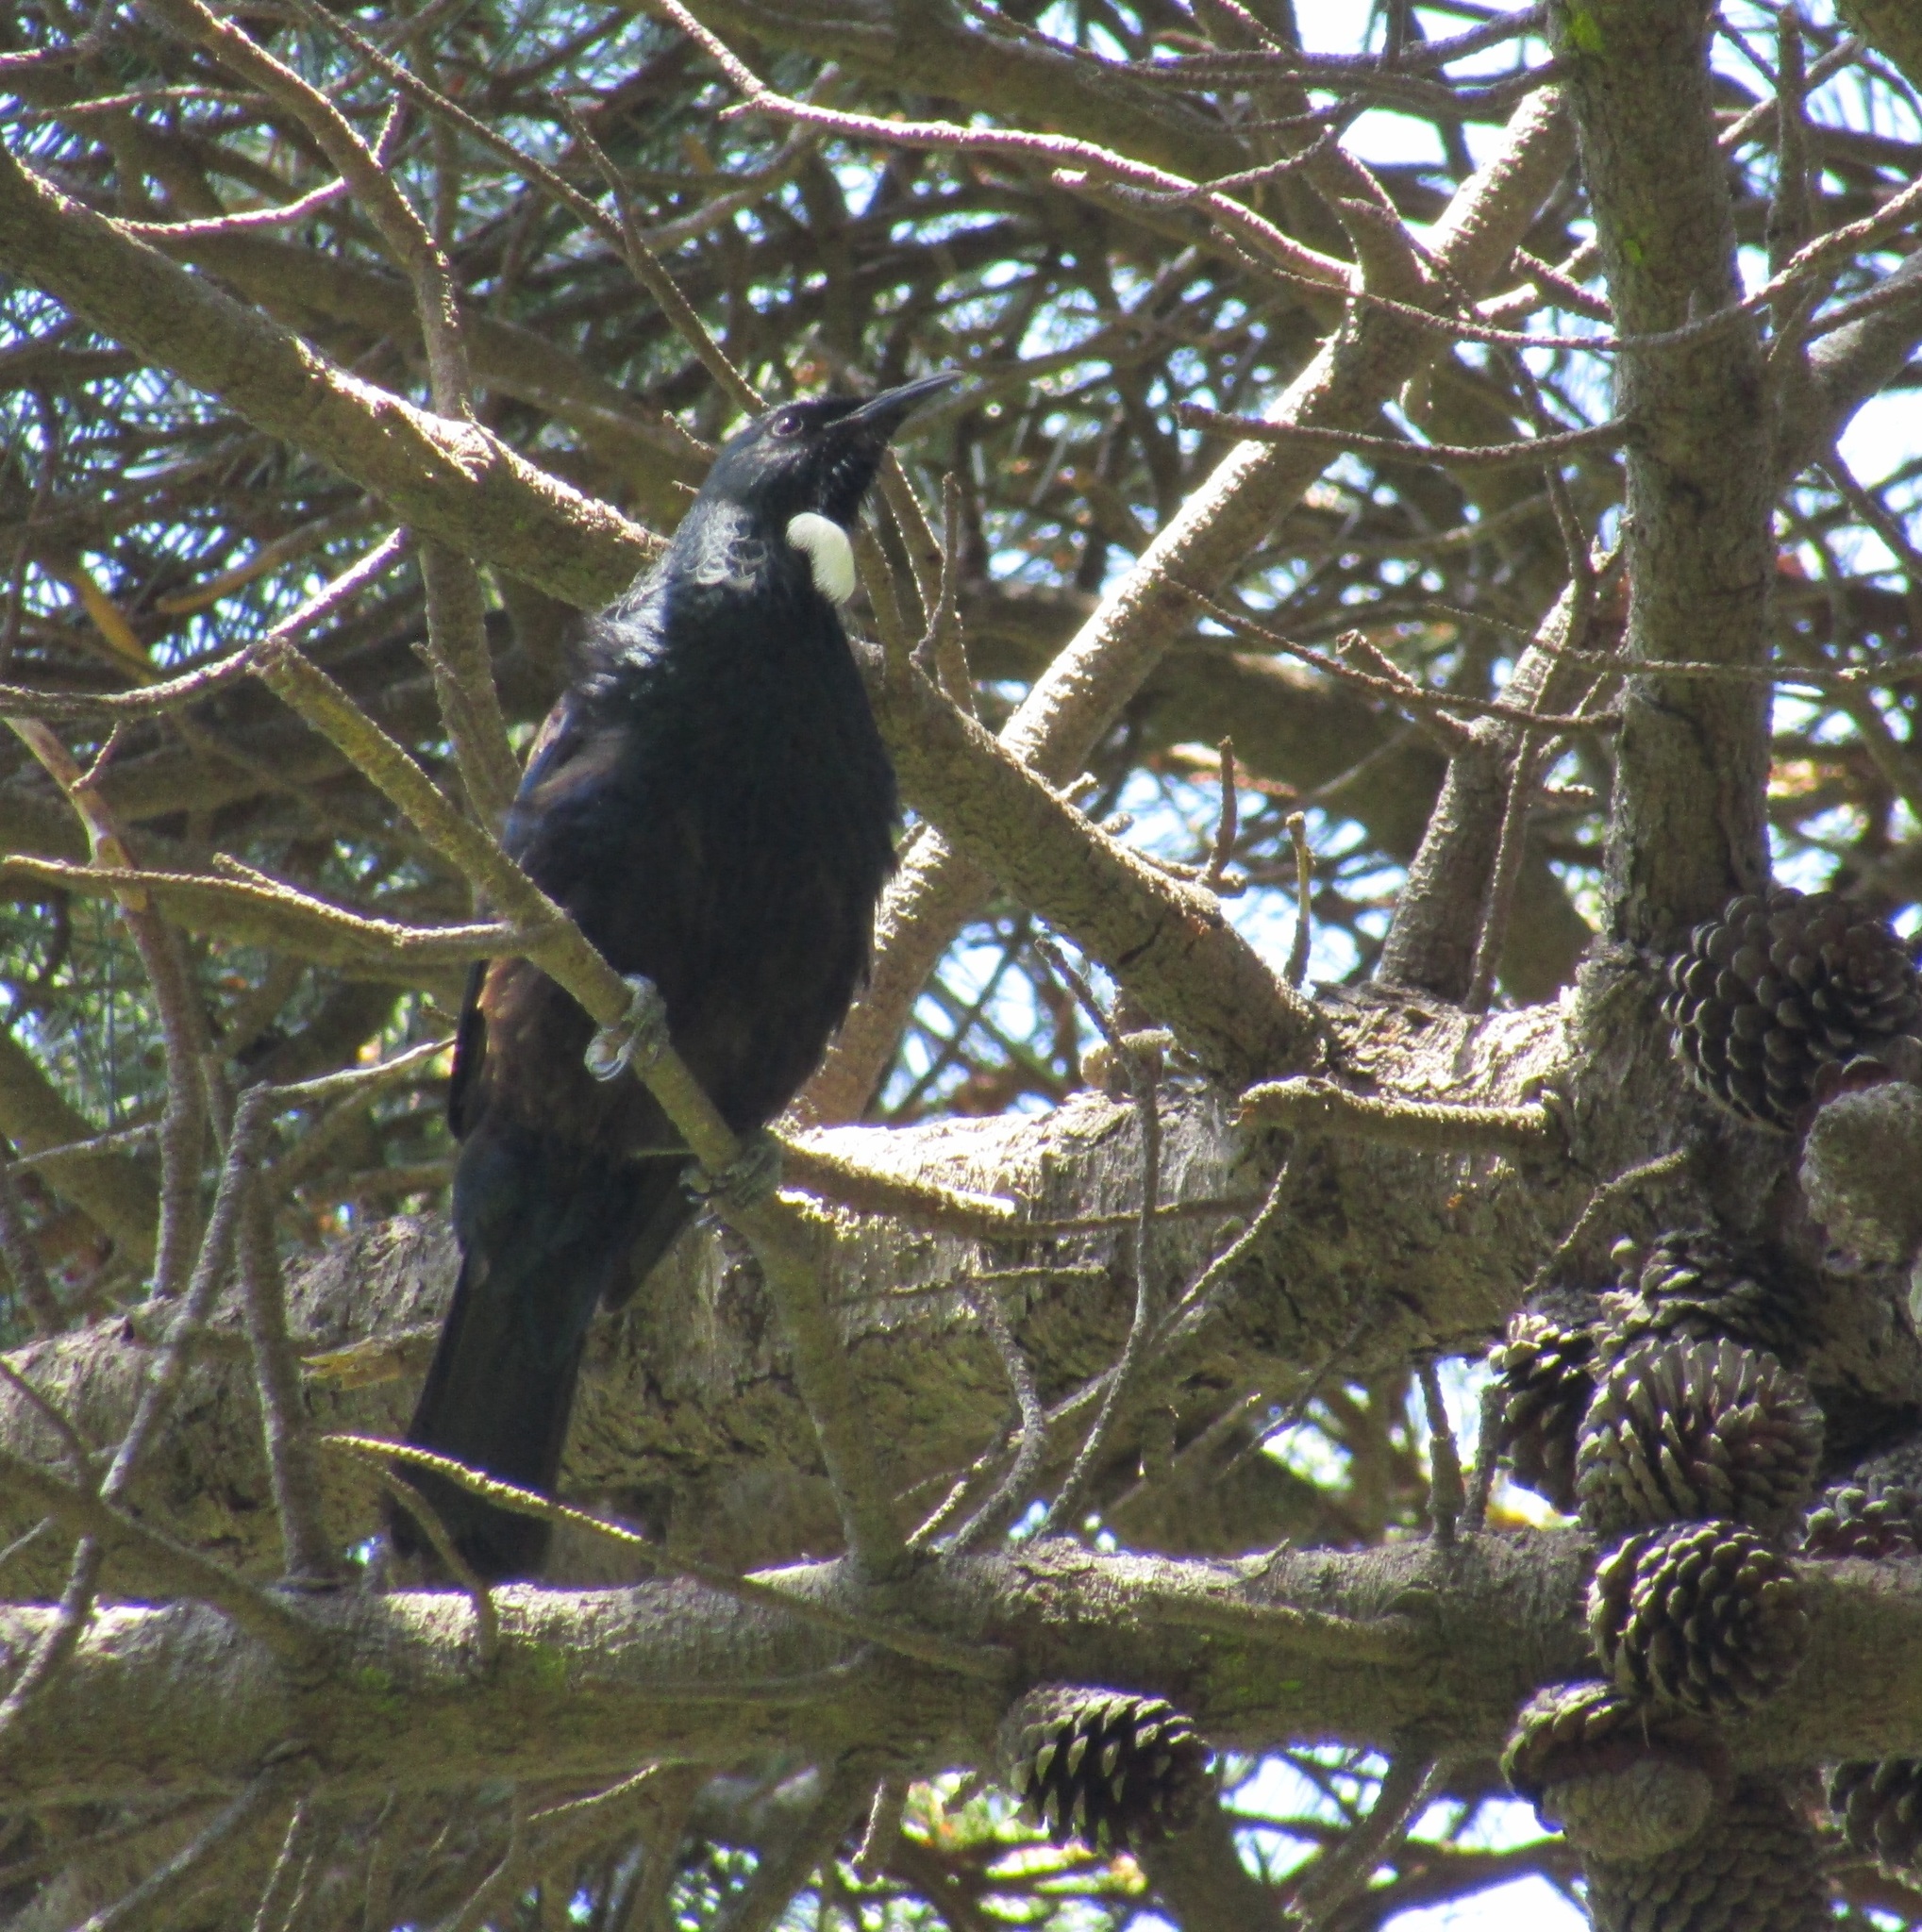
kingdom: Animalia
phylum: Chordata
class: Aves
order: Passeriformes
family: Meliphagidae
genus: Prosthemadera
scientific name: Prosthemadera novaeseelandiae
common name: Tui
